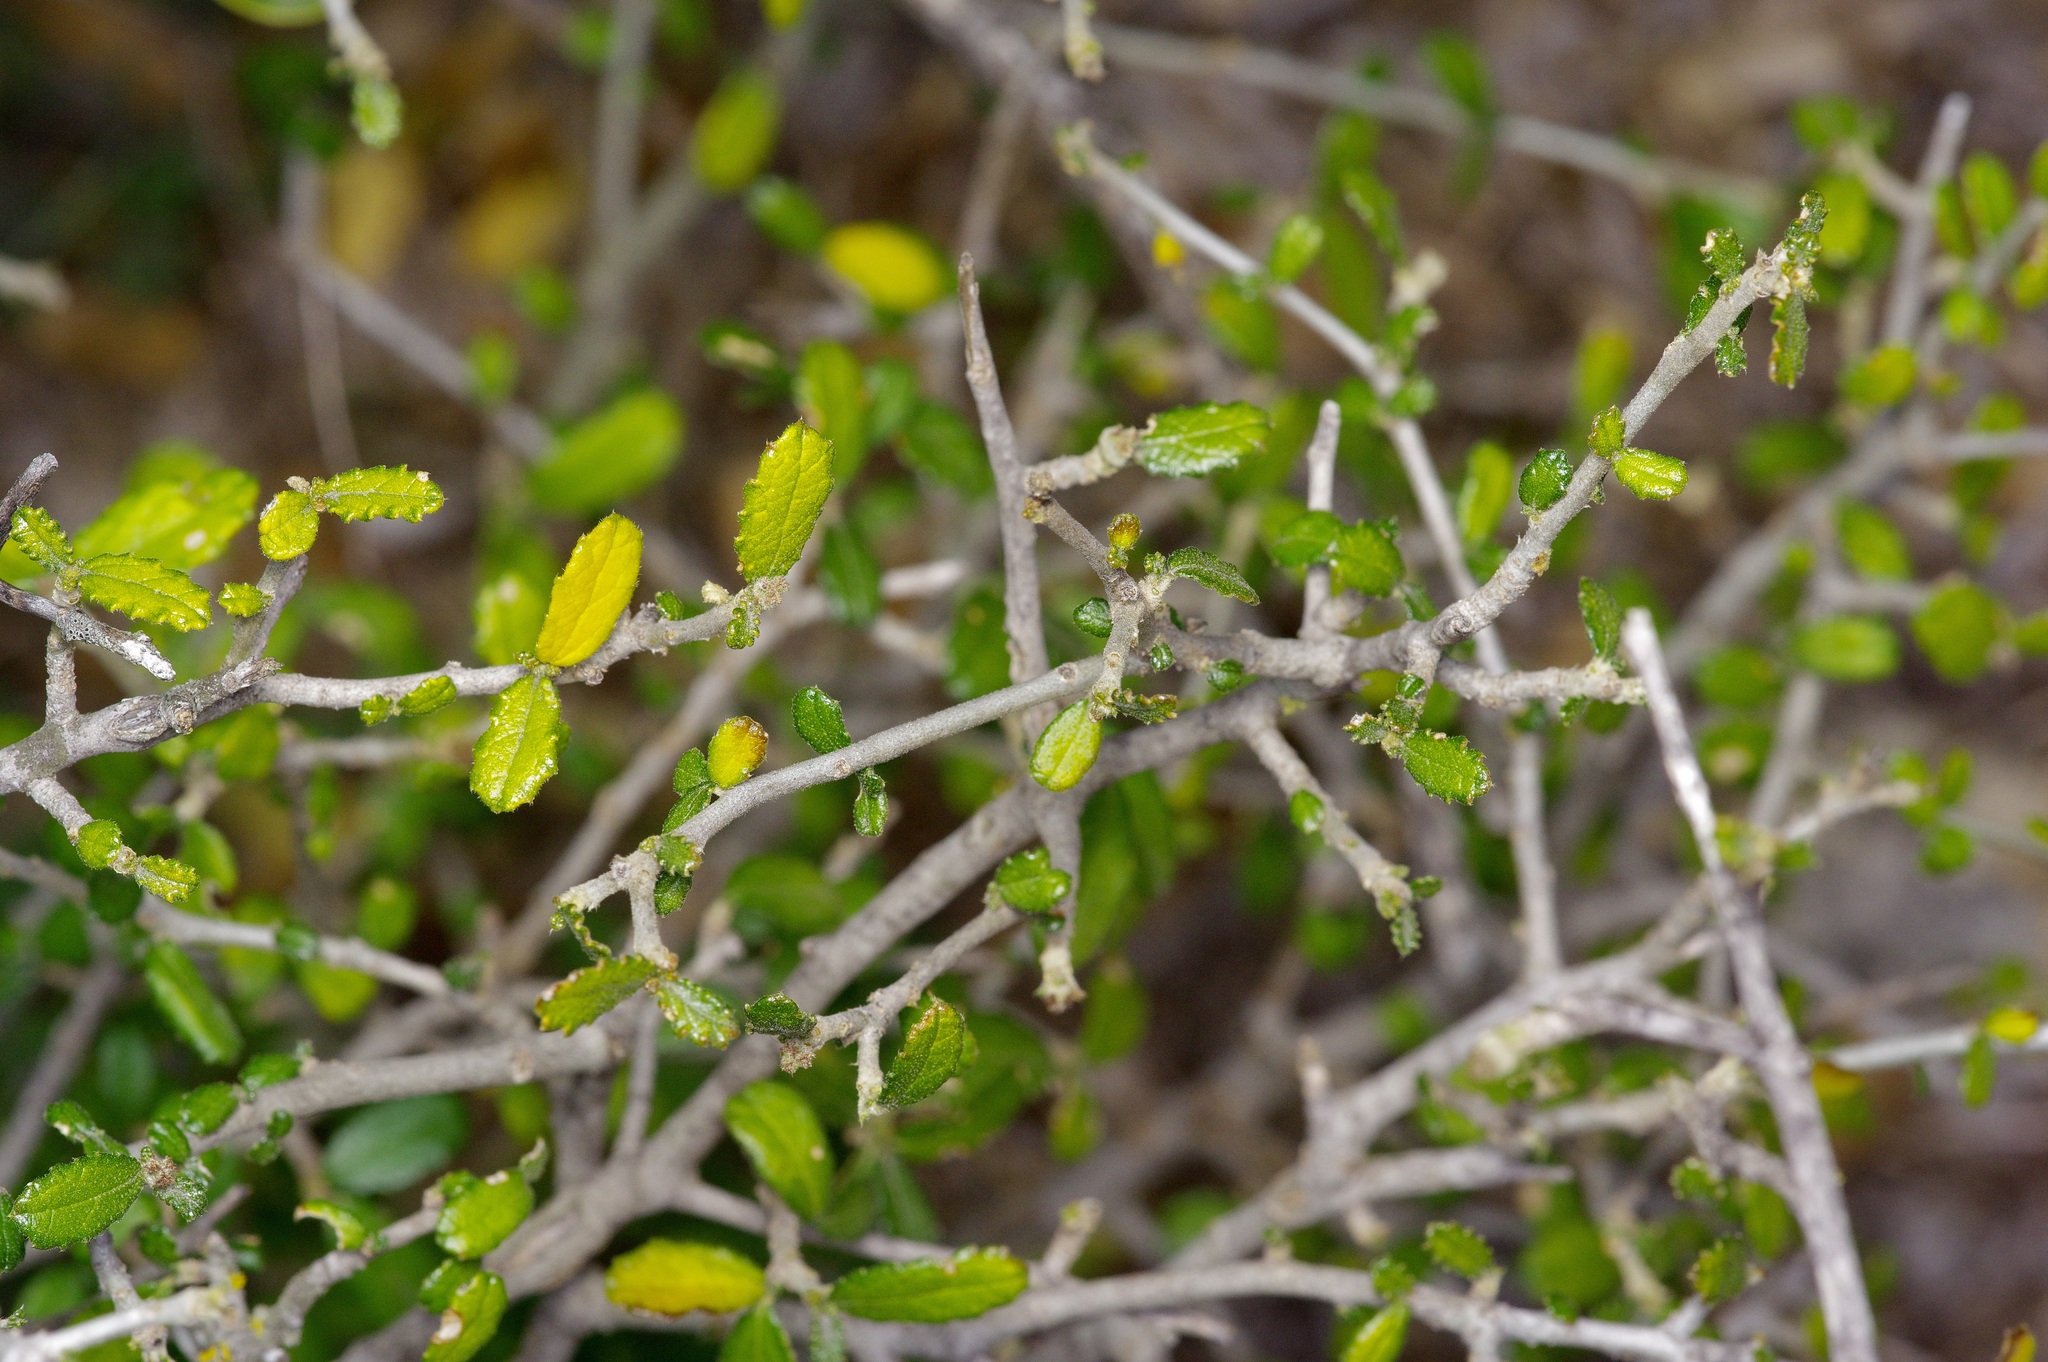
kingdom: Plantae
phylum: Tracheophyta
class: Magnoliopsida
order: Malpighiales
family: Euphorbiaceae
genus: Bernardia
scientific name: Bernardia myricifolia
